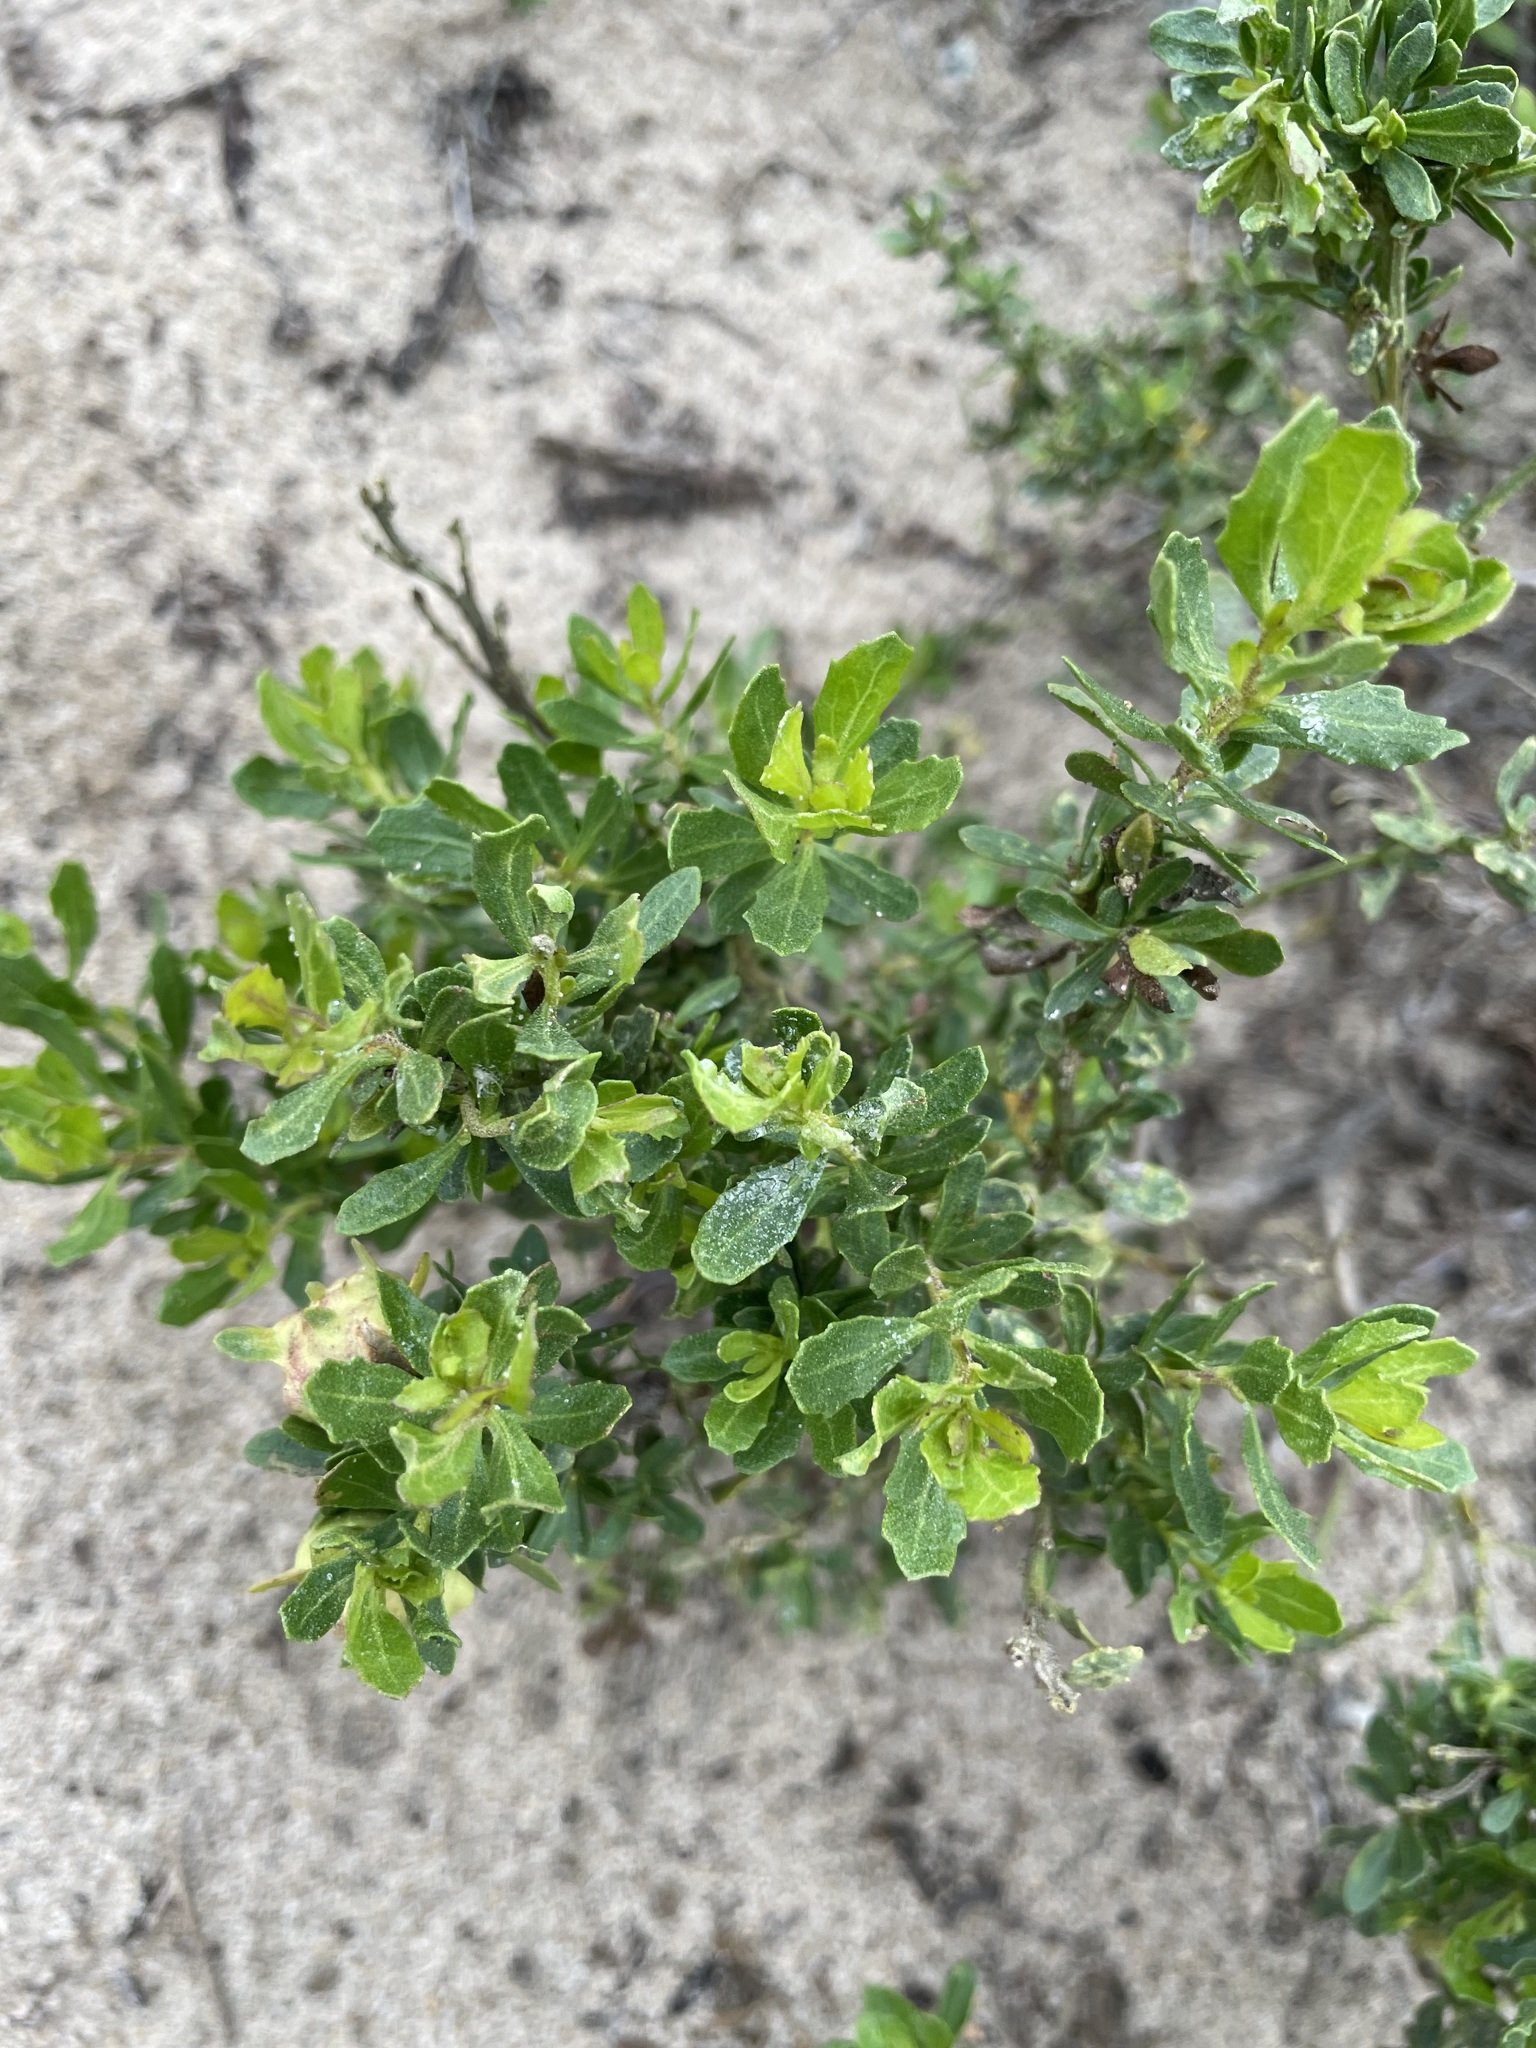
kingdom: Plantae
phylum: Tracheophyta
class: Magnoliopsida
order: Asterales
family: Asteraceae
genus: Baccharis
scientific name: Baccharis pilularis
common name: Coyotebrush
